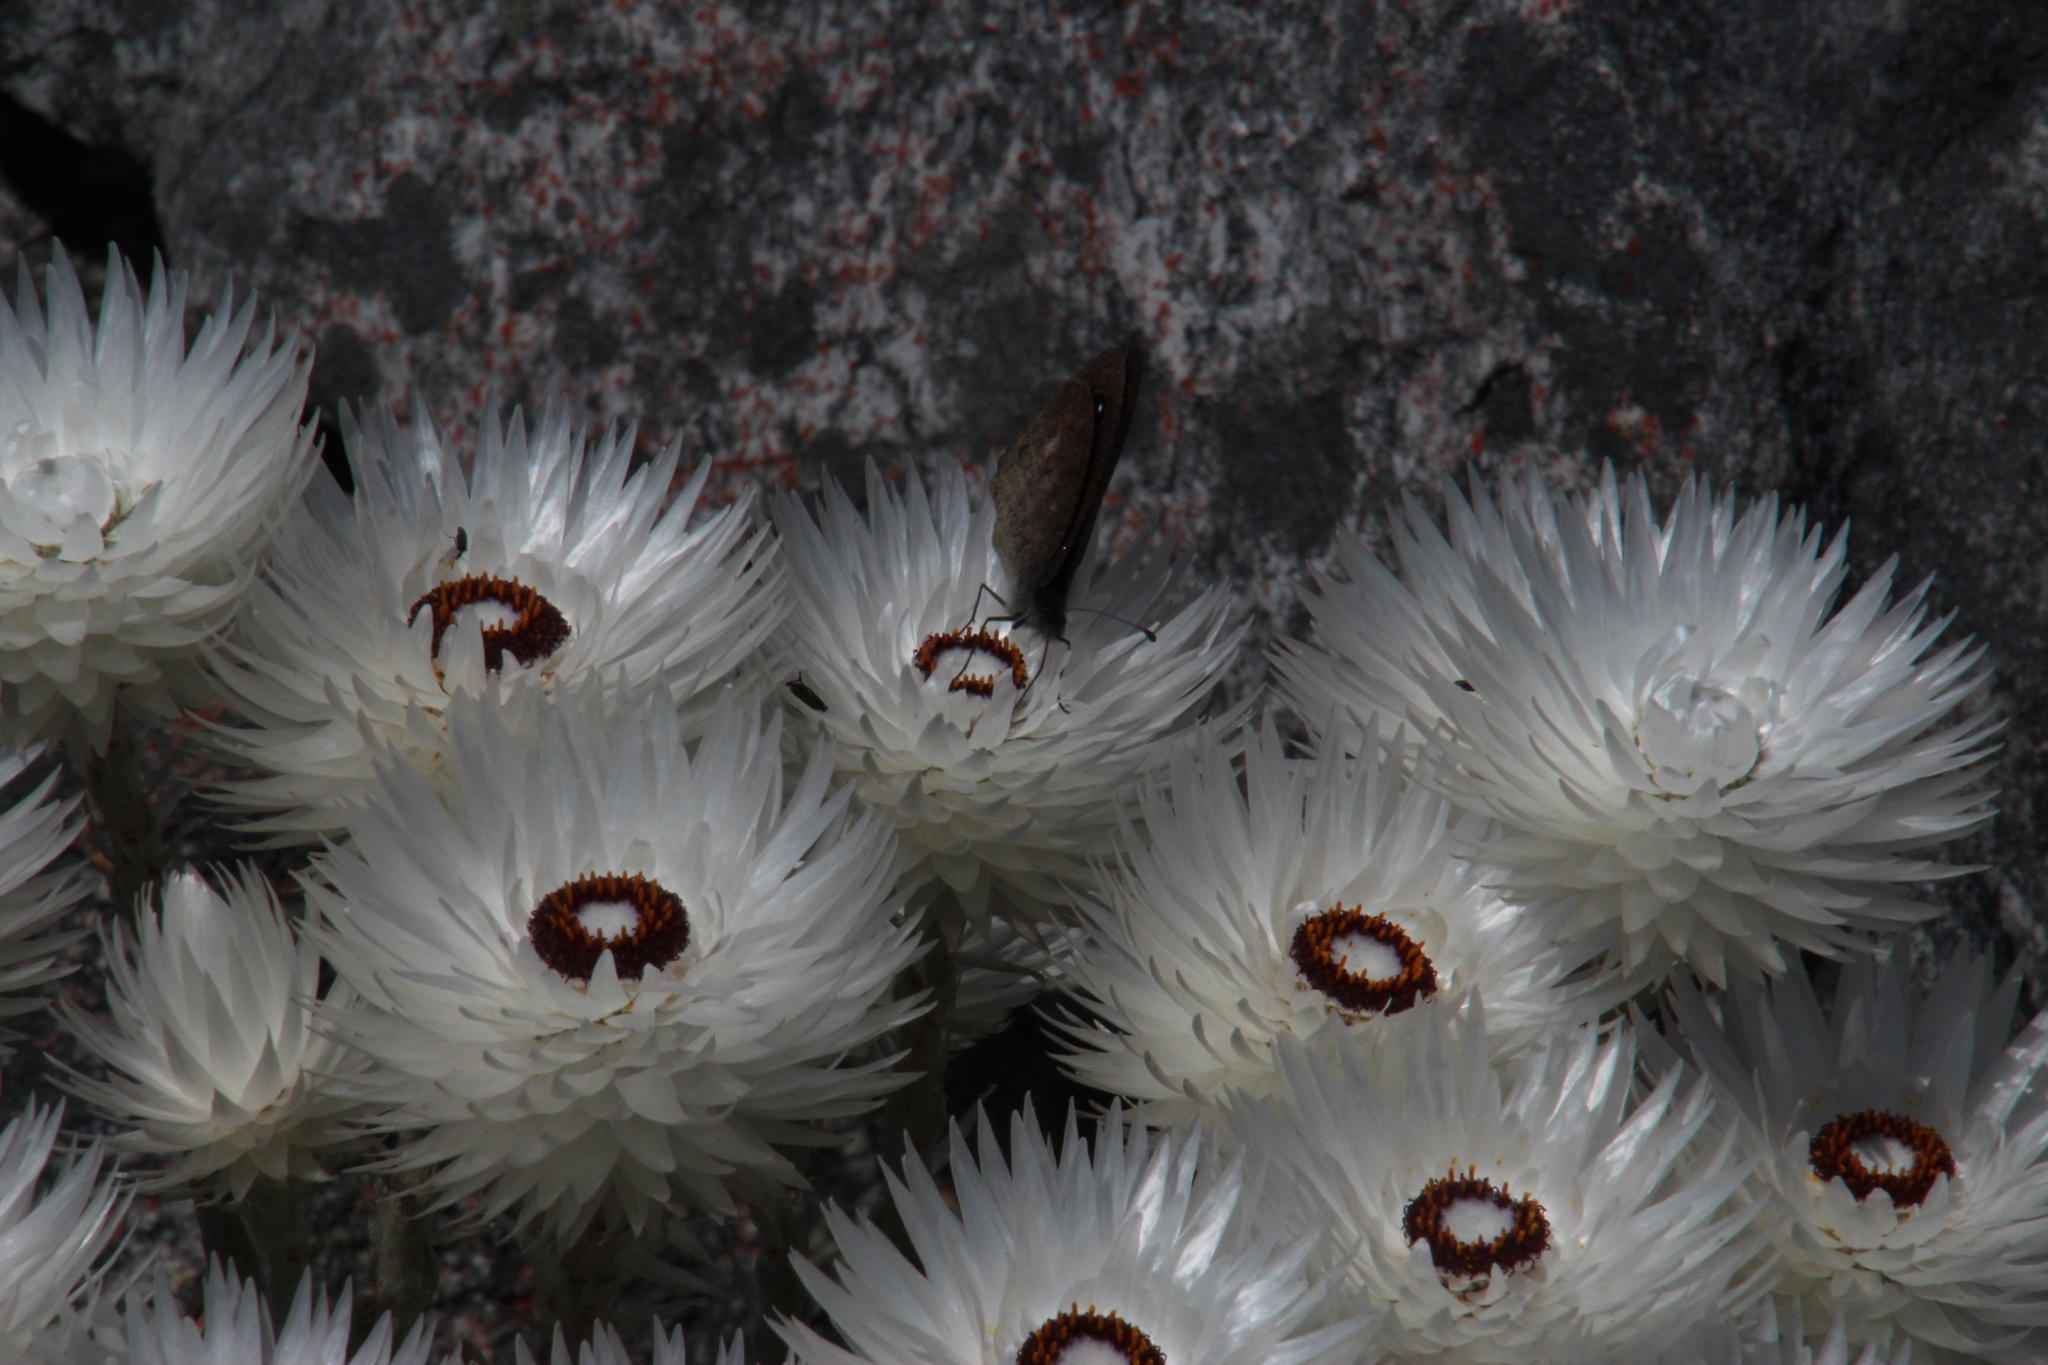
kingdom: Plantae
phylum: Tracheophyta
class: Magnoliopsida
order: Asterales
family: Asteraceae
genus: Syncarpha
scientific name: Syncarpha vestita
